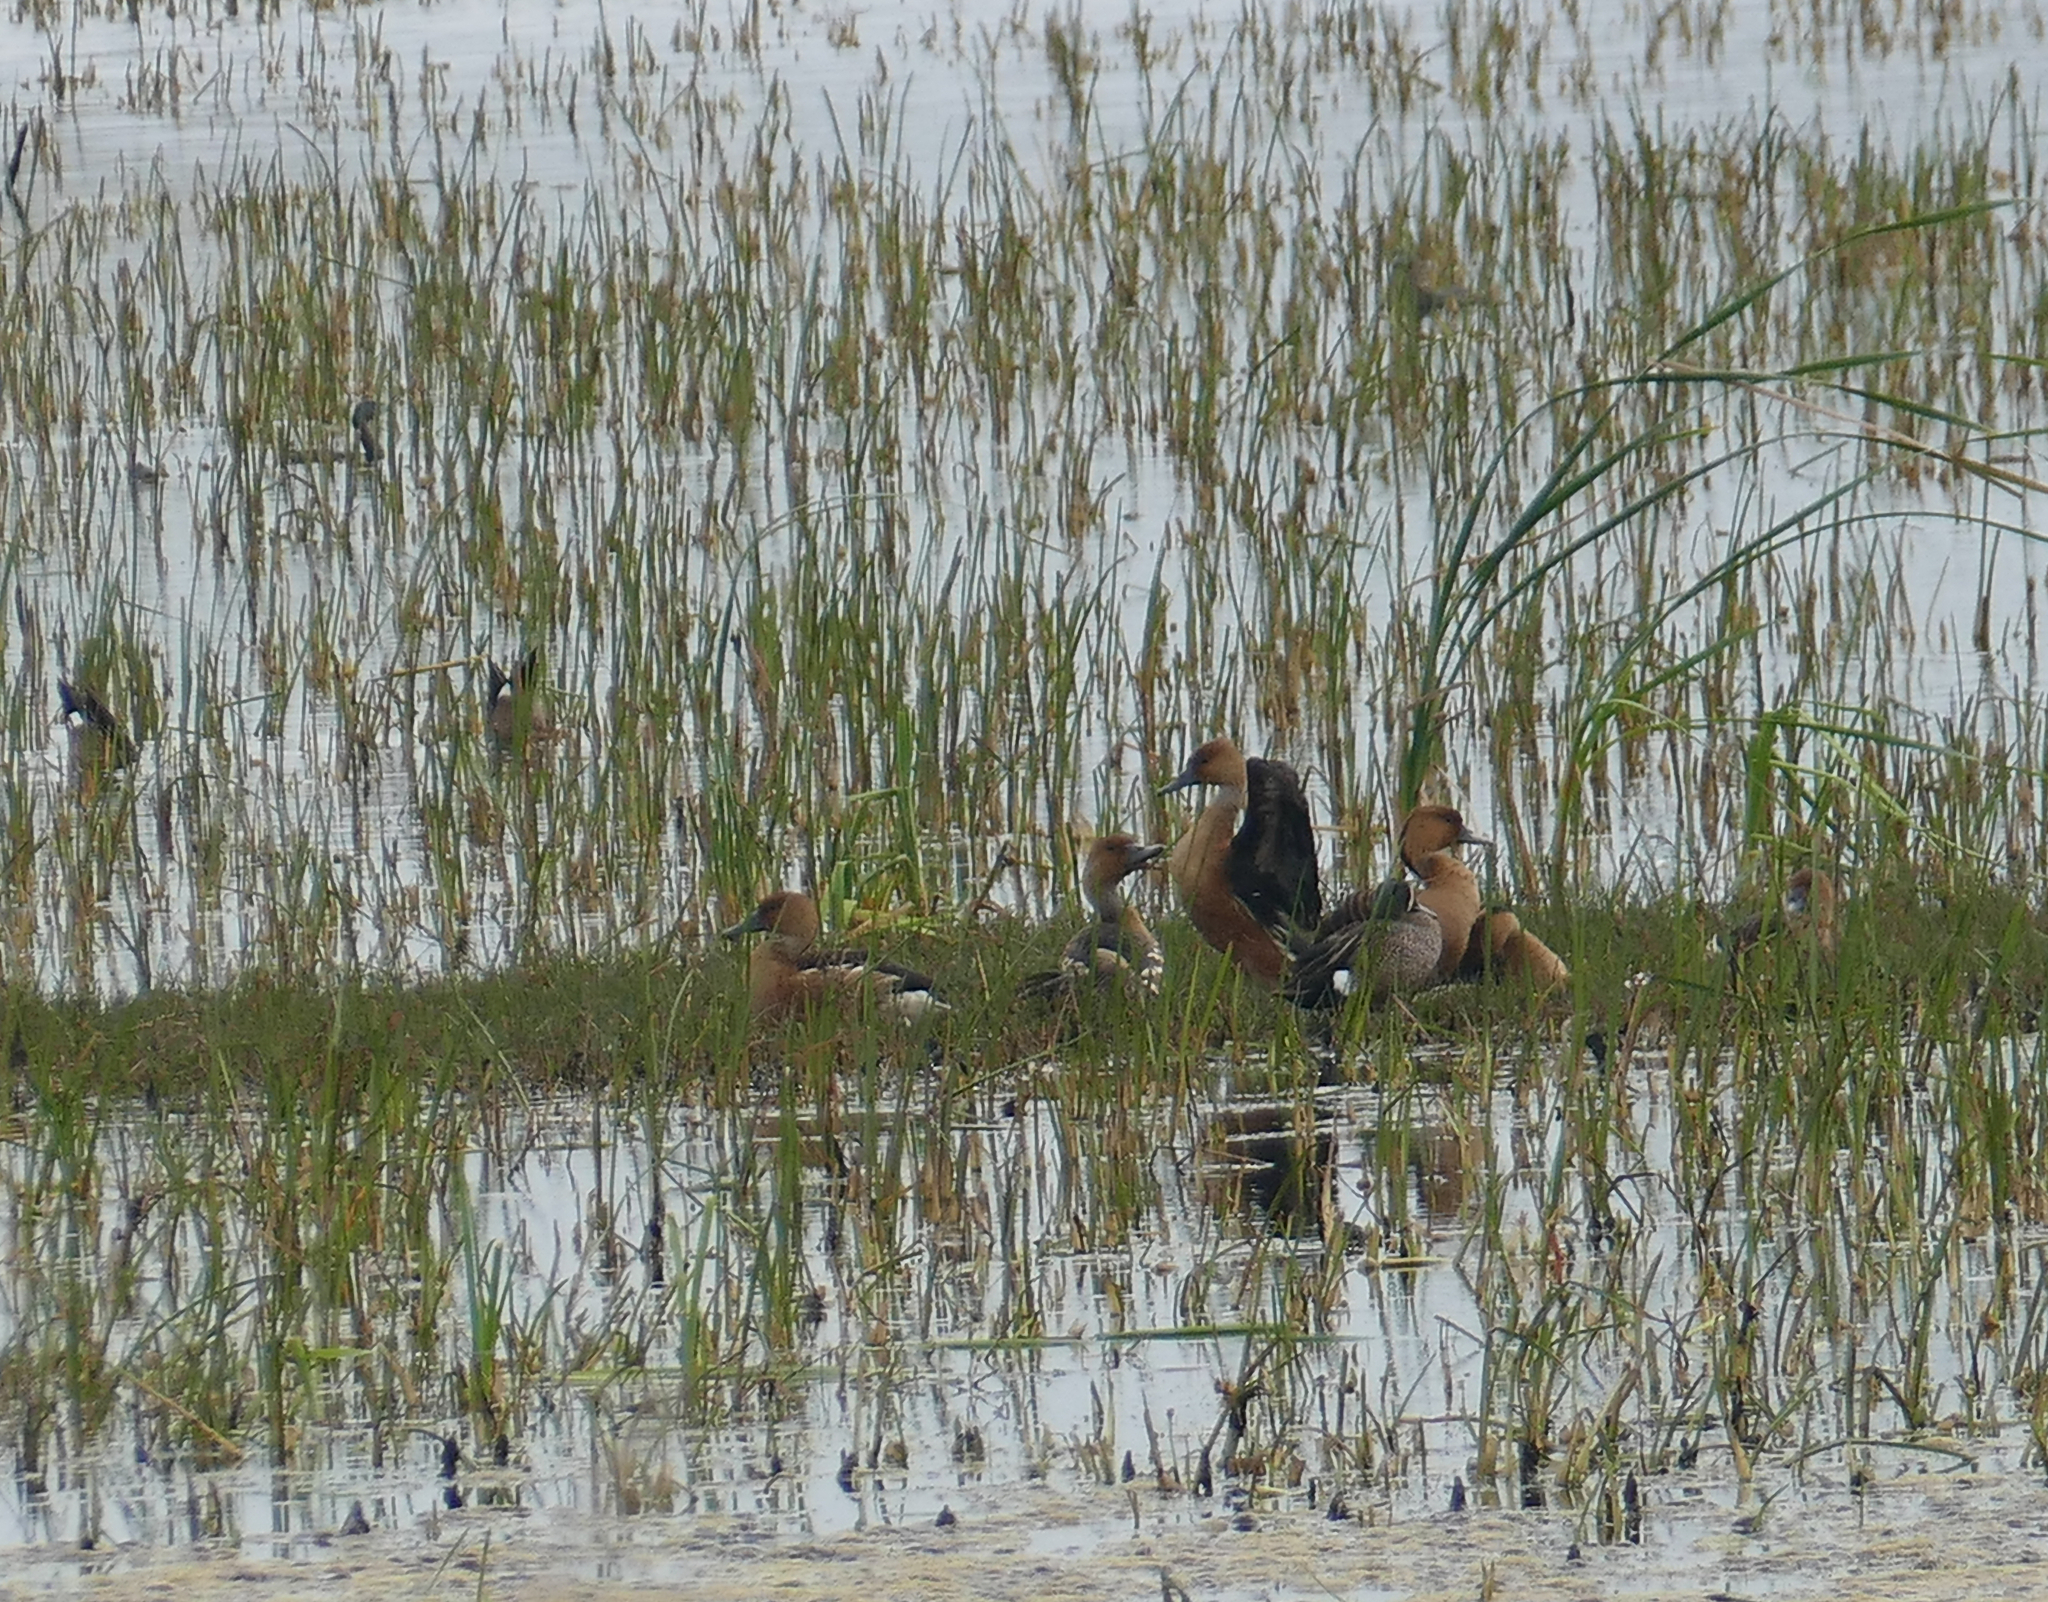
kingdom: Animalia
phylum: Chordata
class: Aves
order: Anseriformes
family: Anatidae
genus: Dendrocygna
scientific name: Dendrocygna bicolor
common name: Fulvous whistling duck
